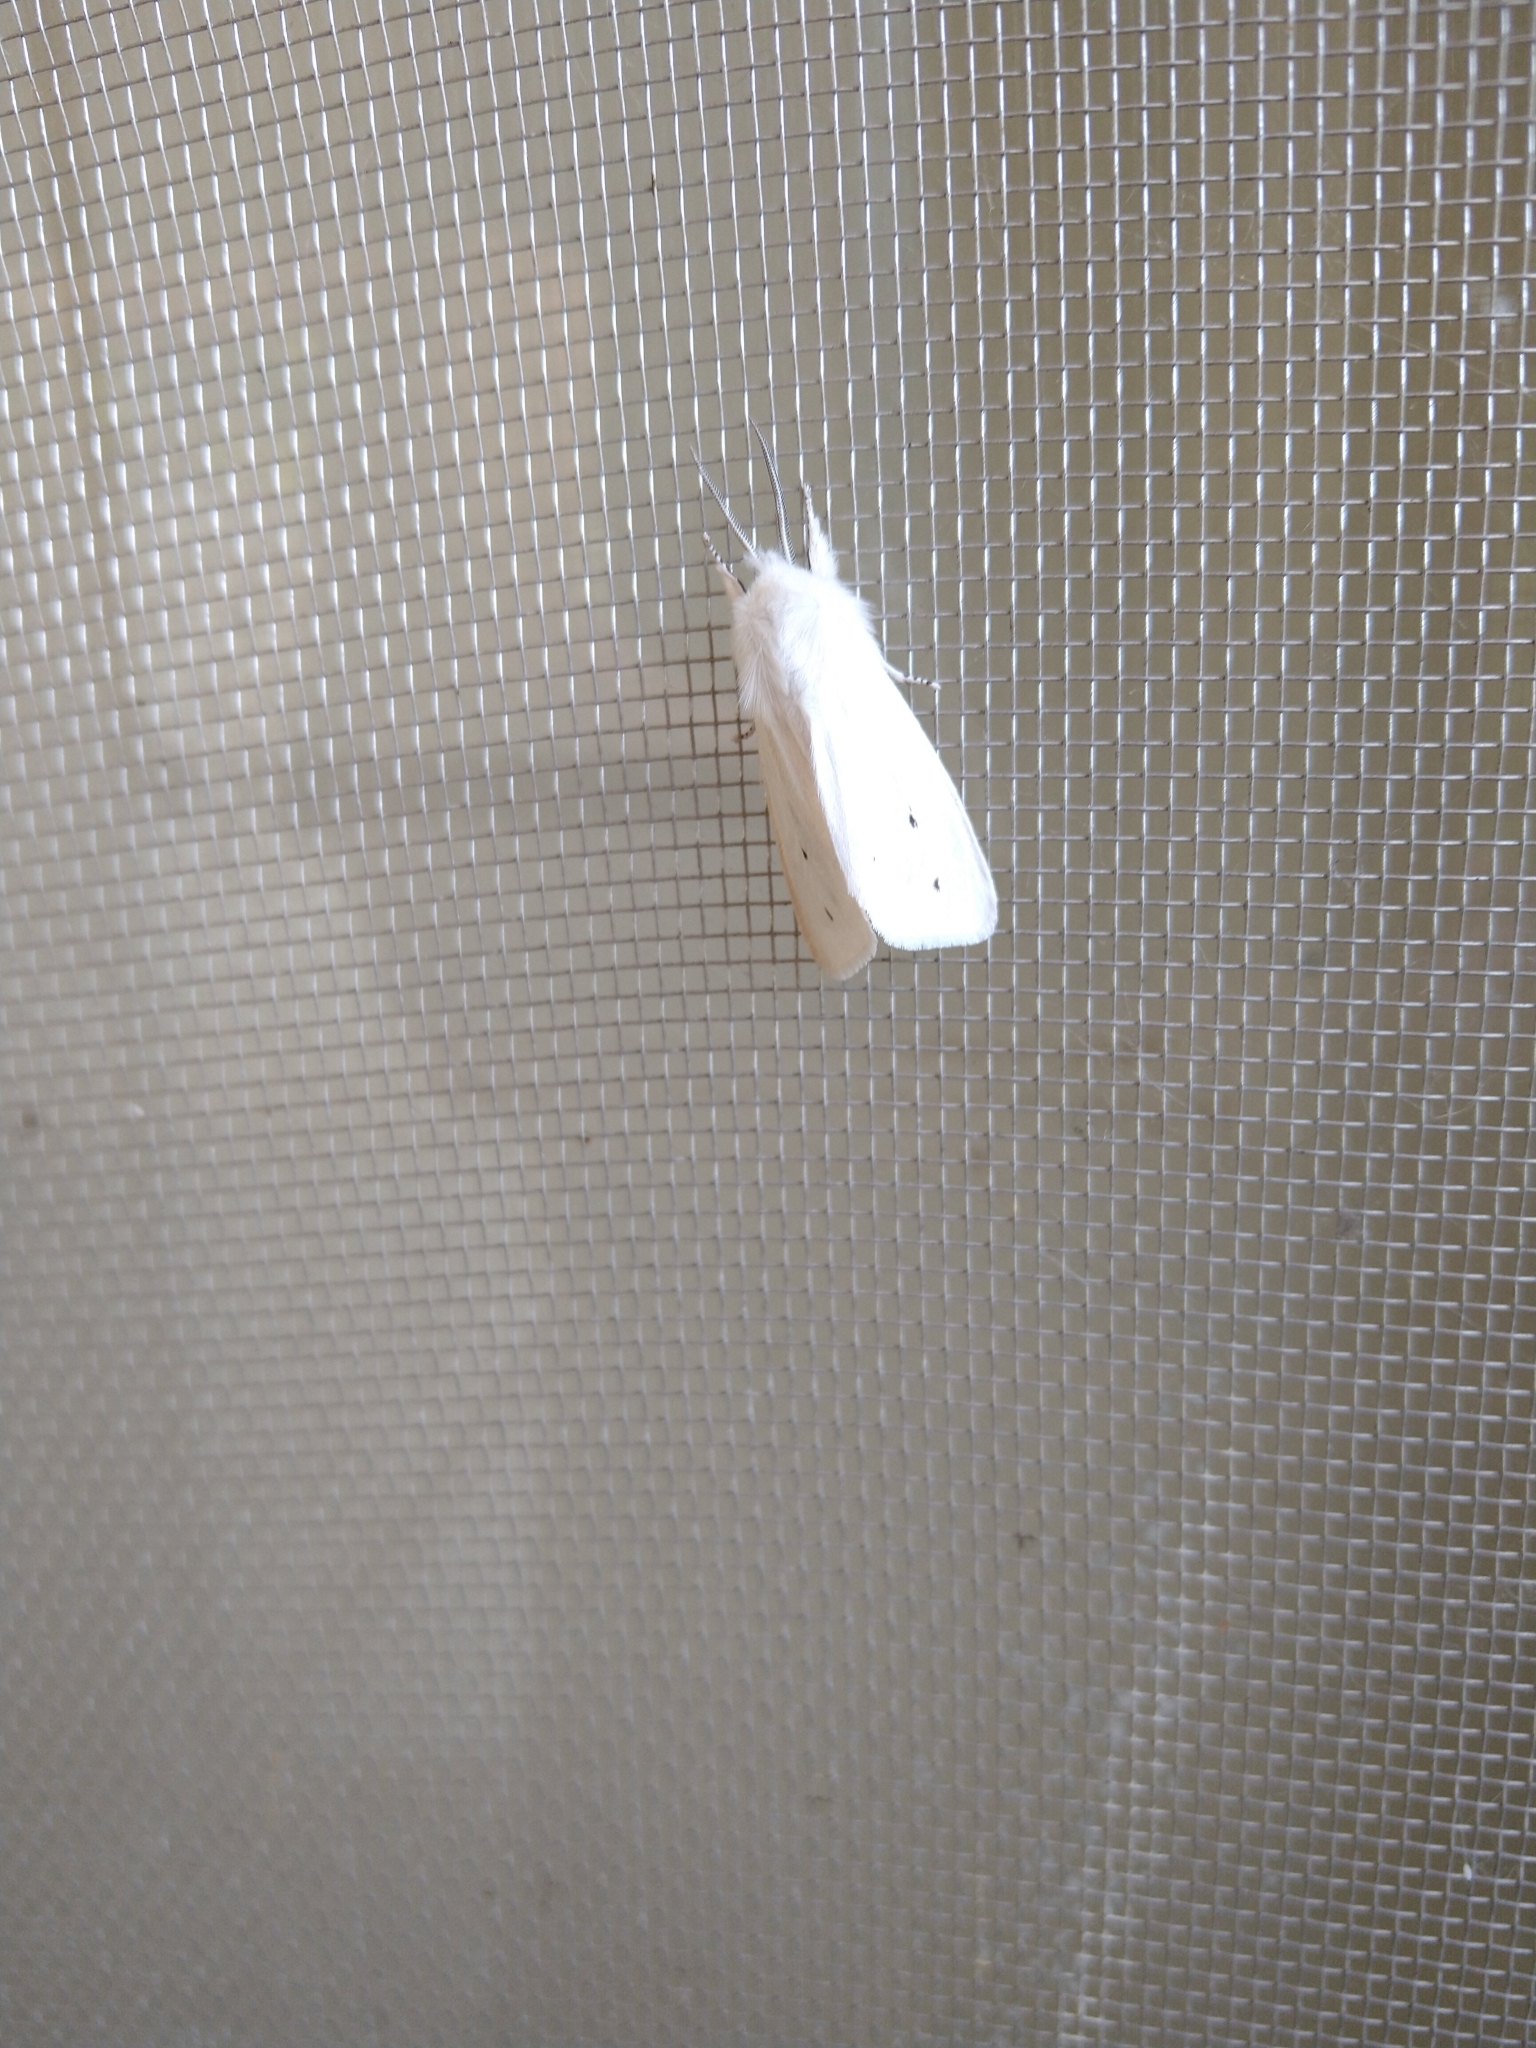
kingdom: Animalia
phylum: Arthropoda
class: Insecta
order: Lepidoptera
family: Erebidae
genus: Spilosoma
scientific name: Spilosoma virginica
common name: Virginia tiger moth
